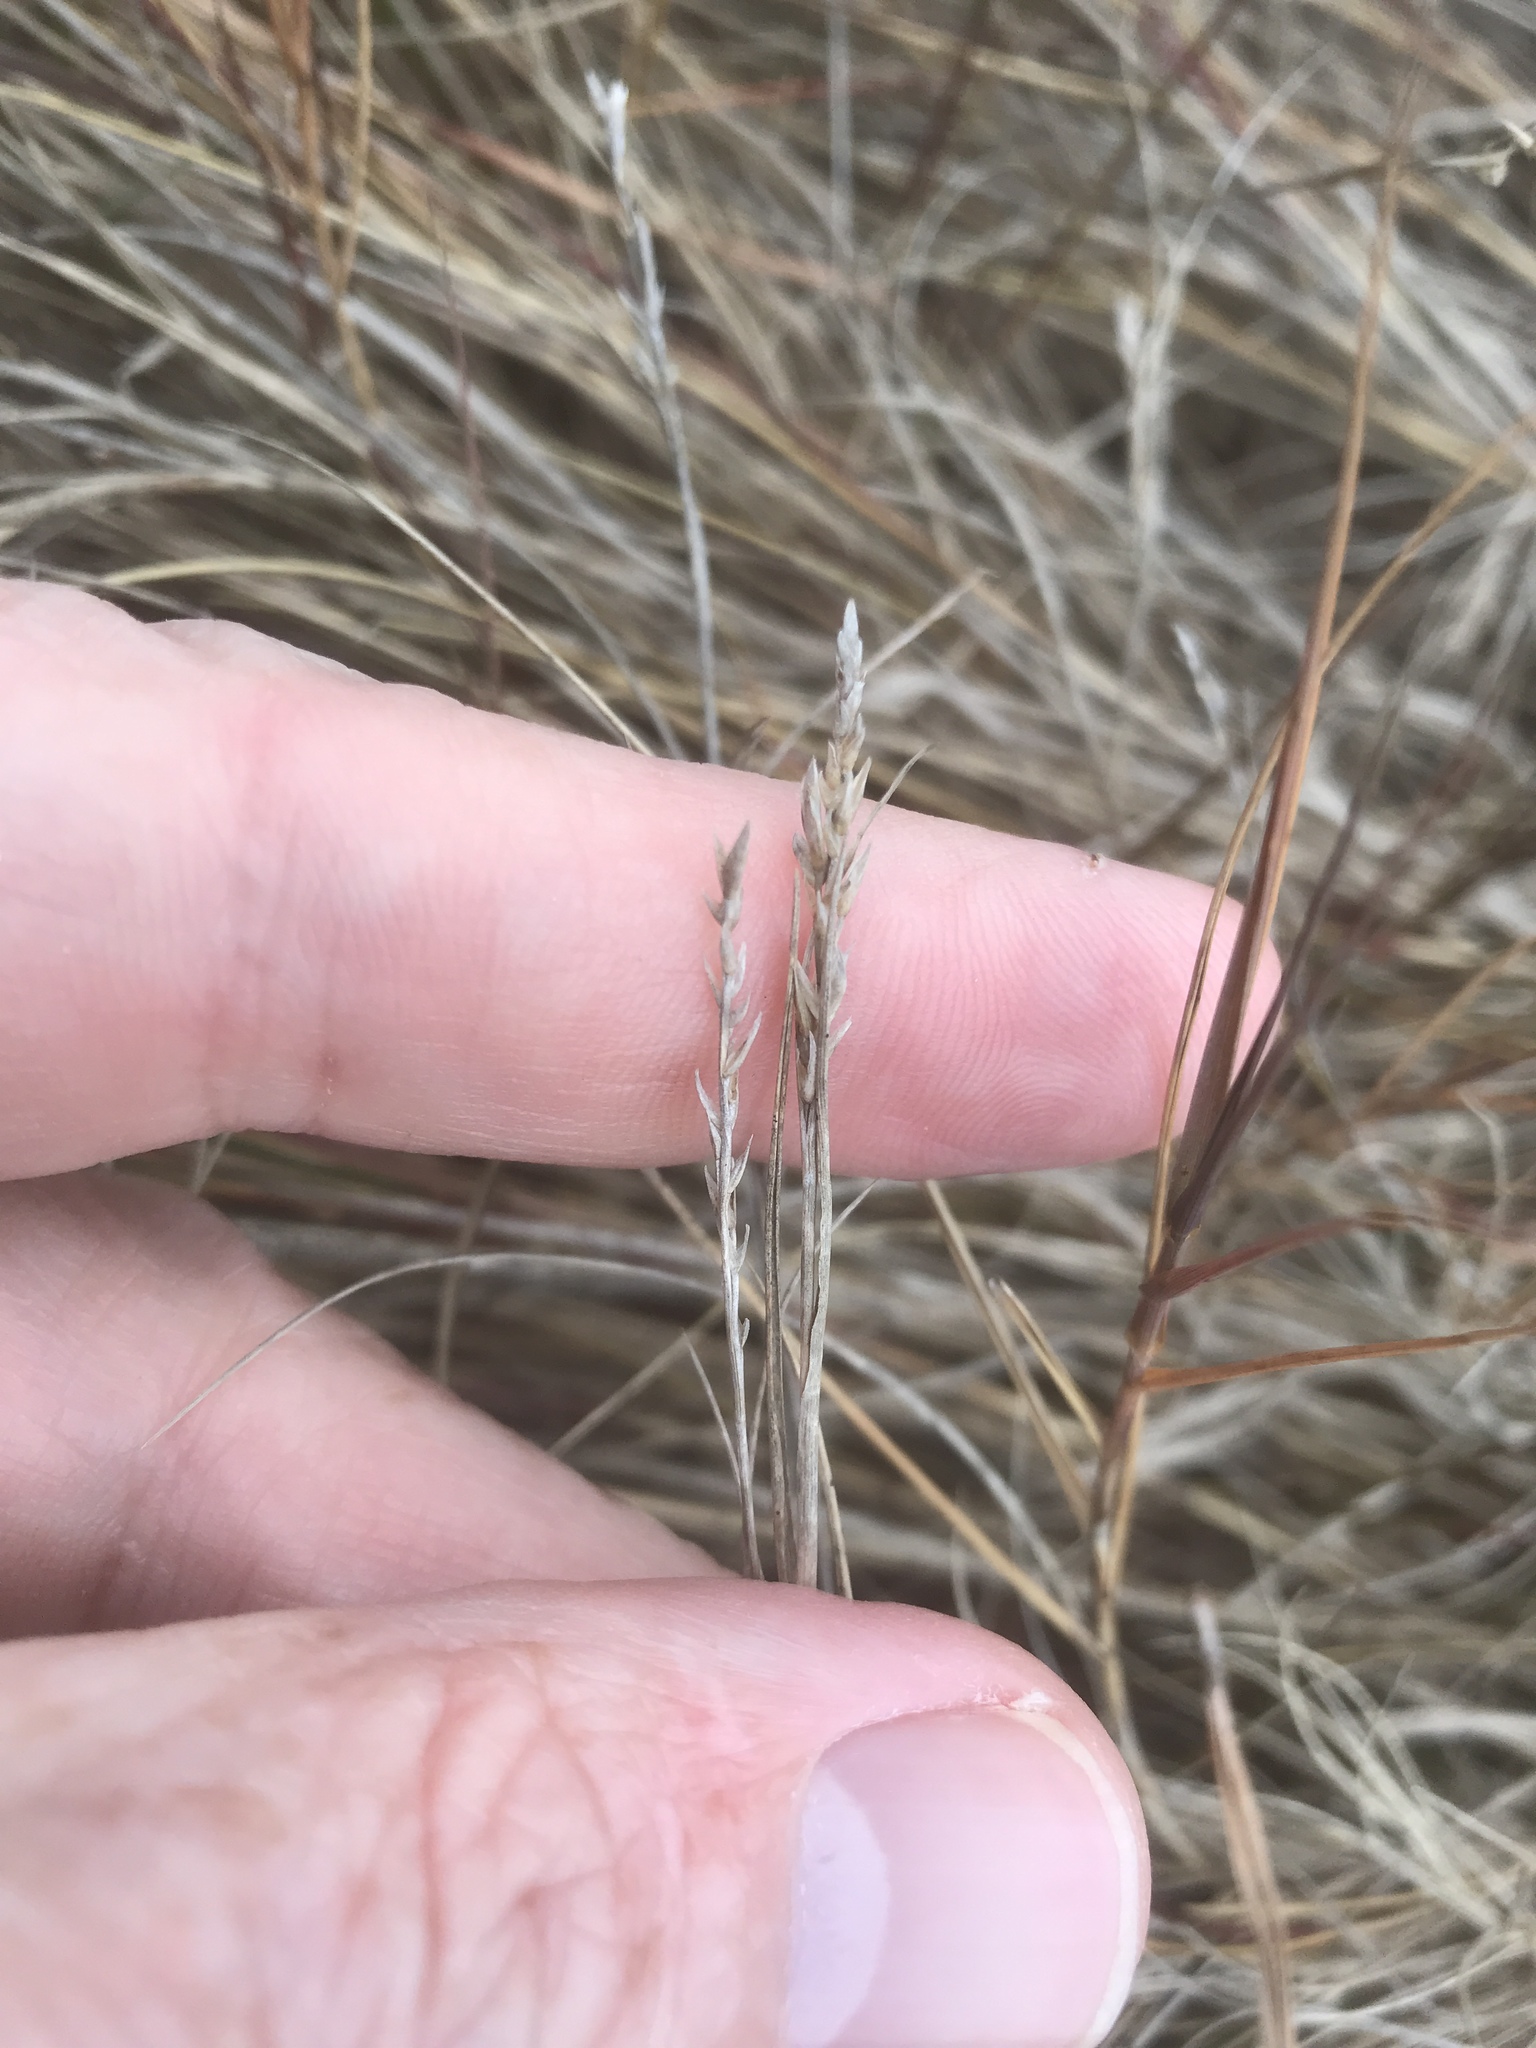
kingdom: Plantae
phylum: Tracheophyta
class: Liliopsida
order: Poales
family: Poaceae
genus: Distichlis
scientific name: Distichlis spicata
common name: Saltgrass
